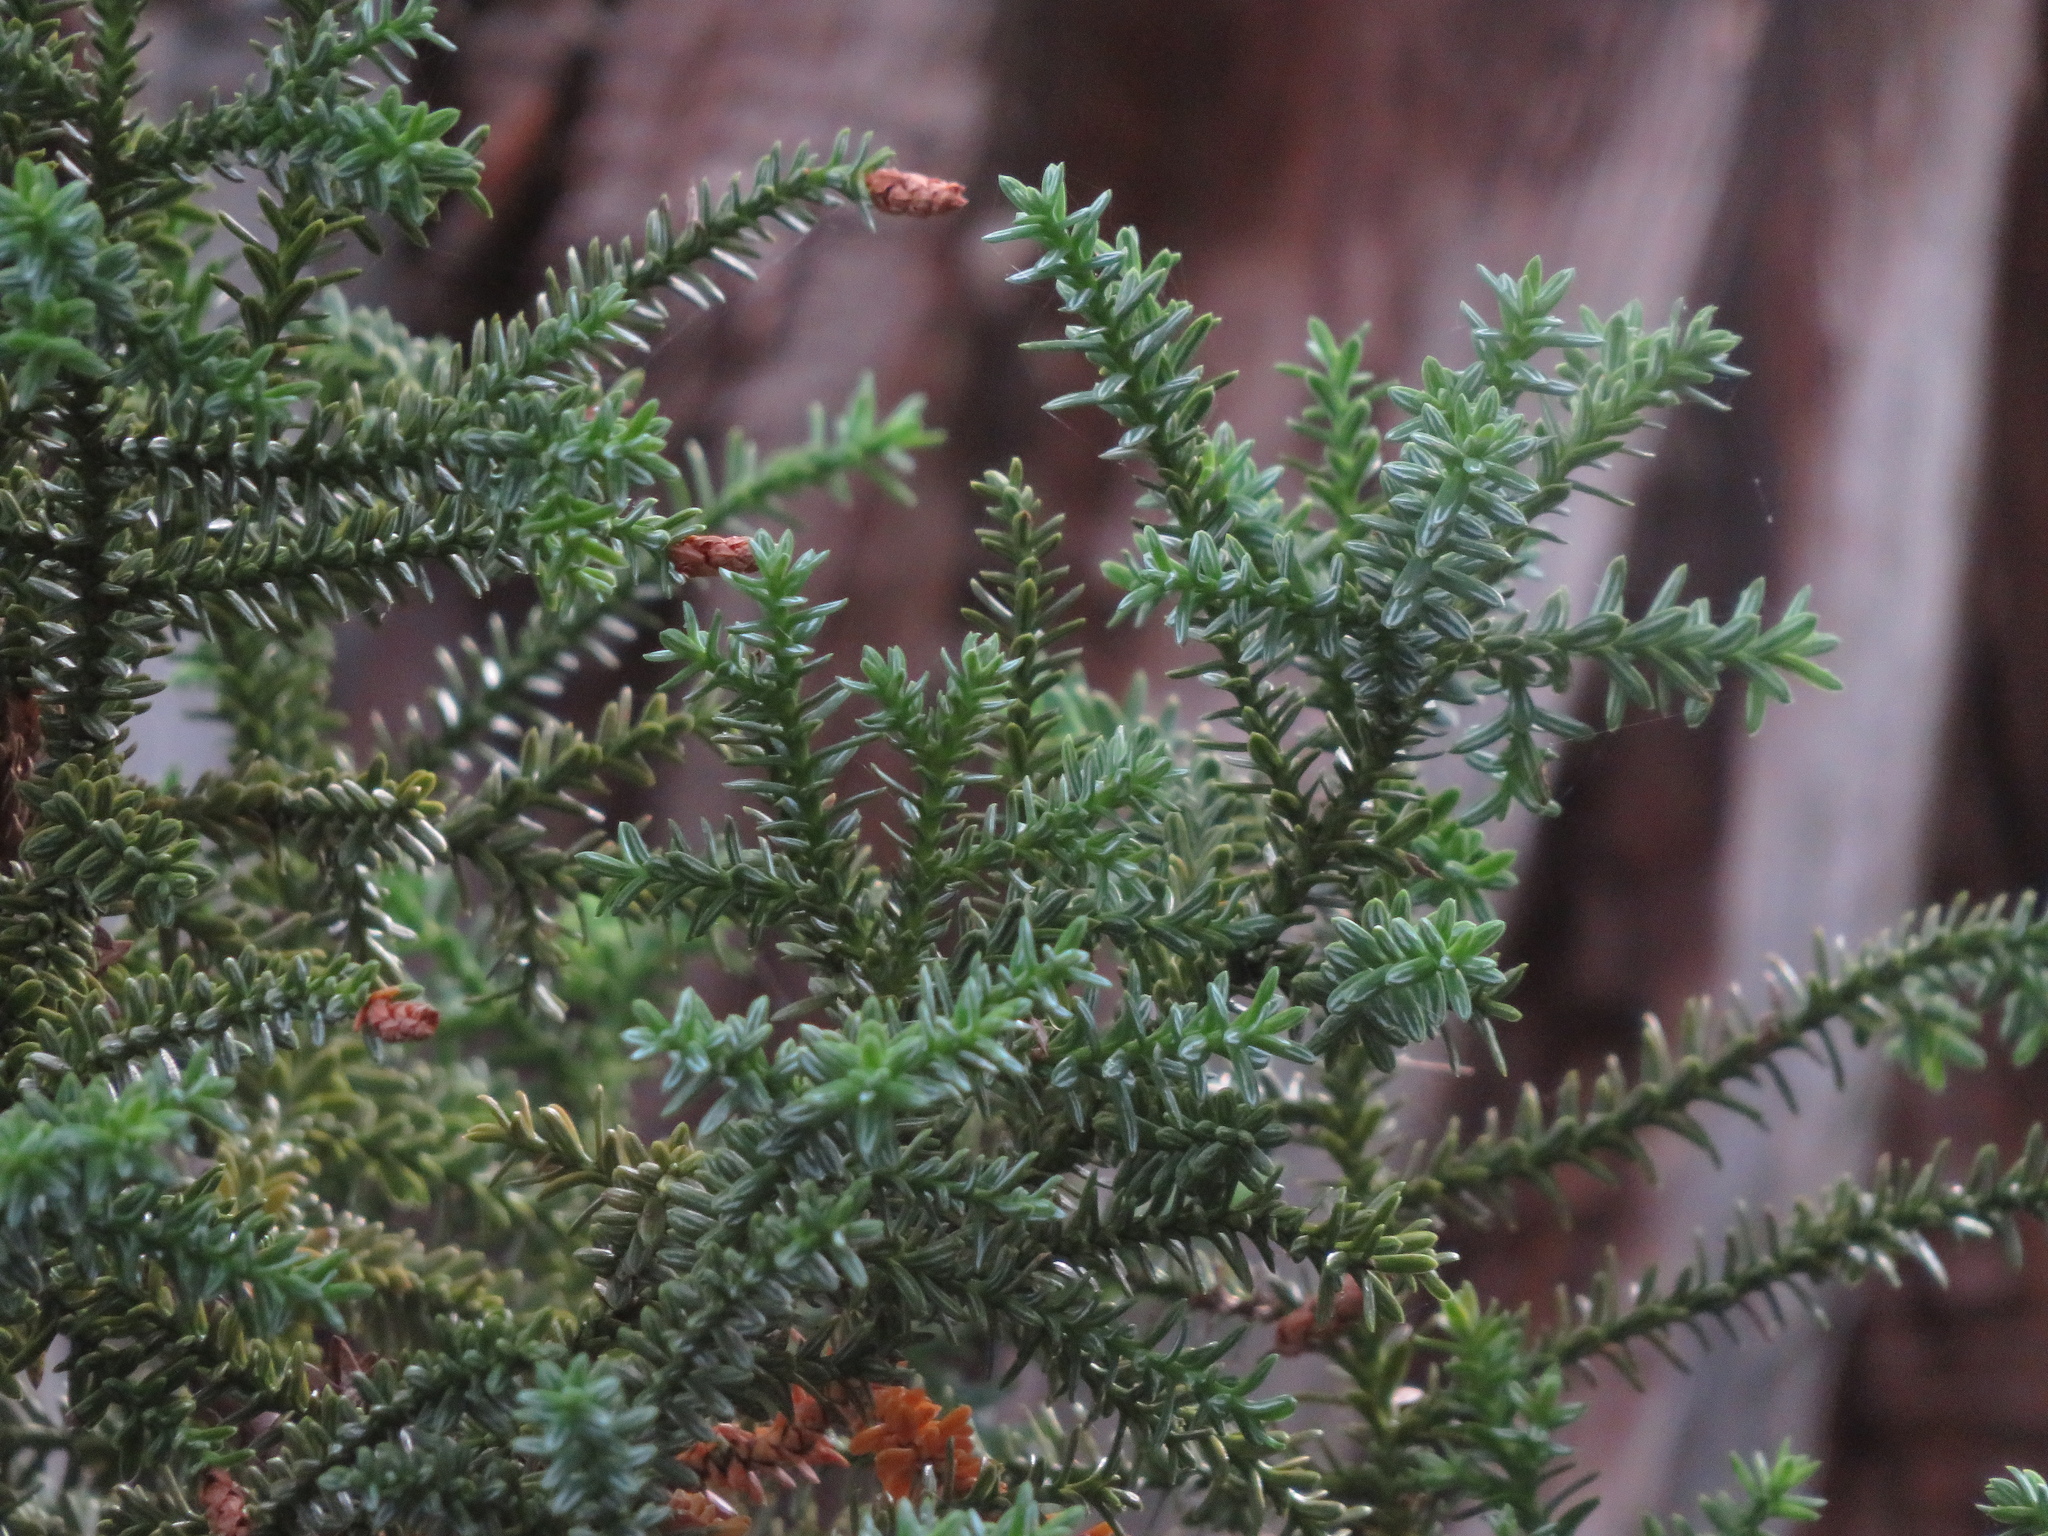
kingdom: Plantae
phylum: Tracheophyta
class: Pinopsida
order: Pinales
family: Cupressaceae
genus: Fitzroya
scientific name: Fitzroya cupressoides
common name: Patagonian cypress
